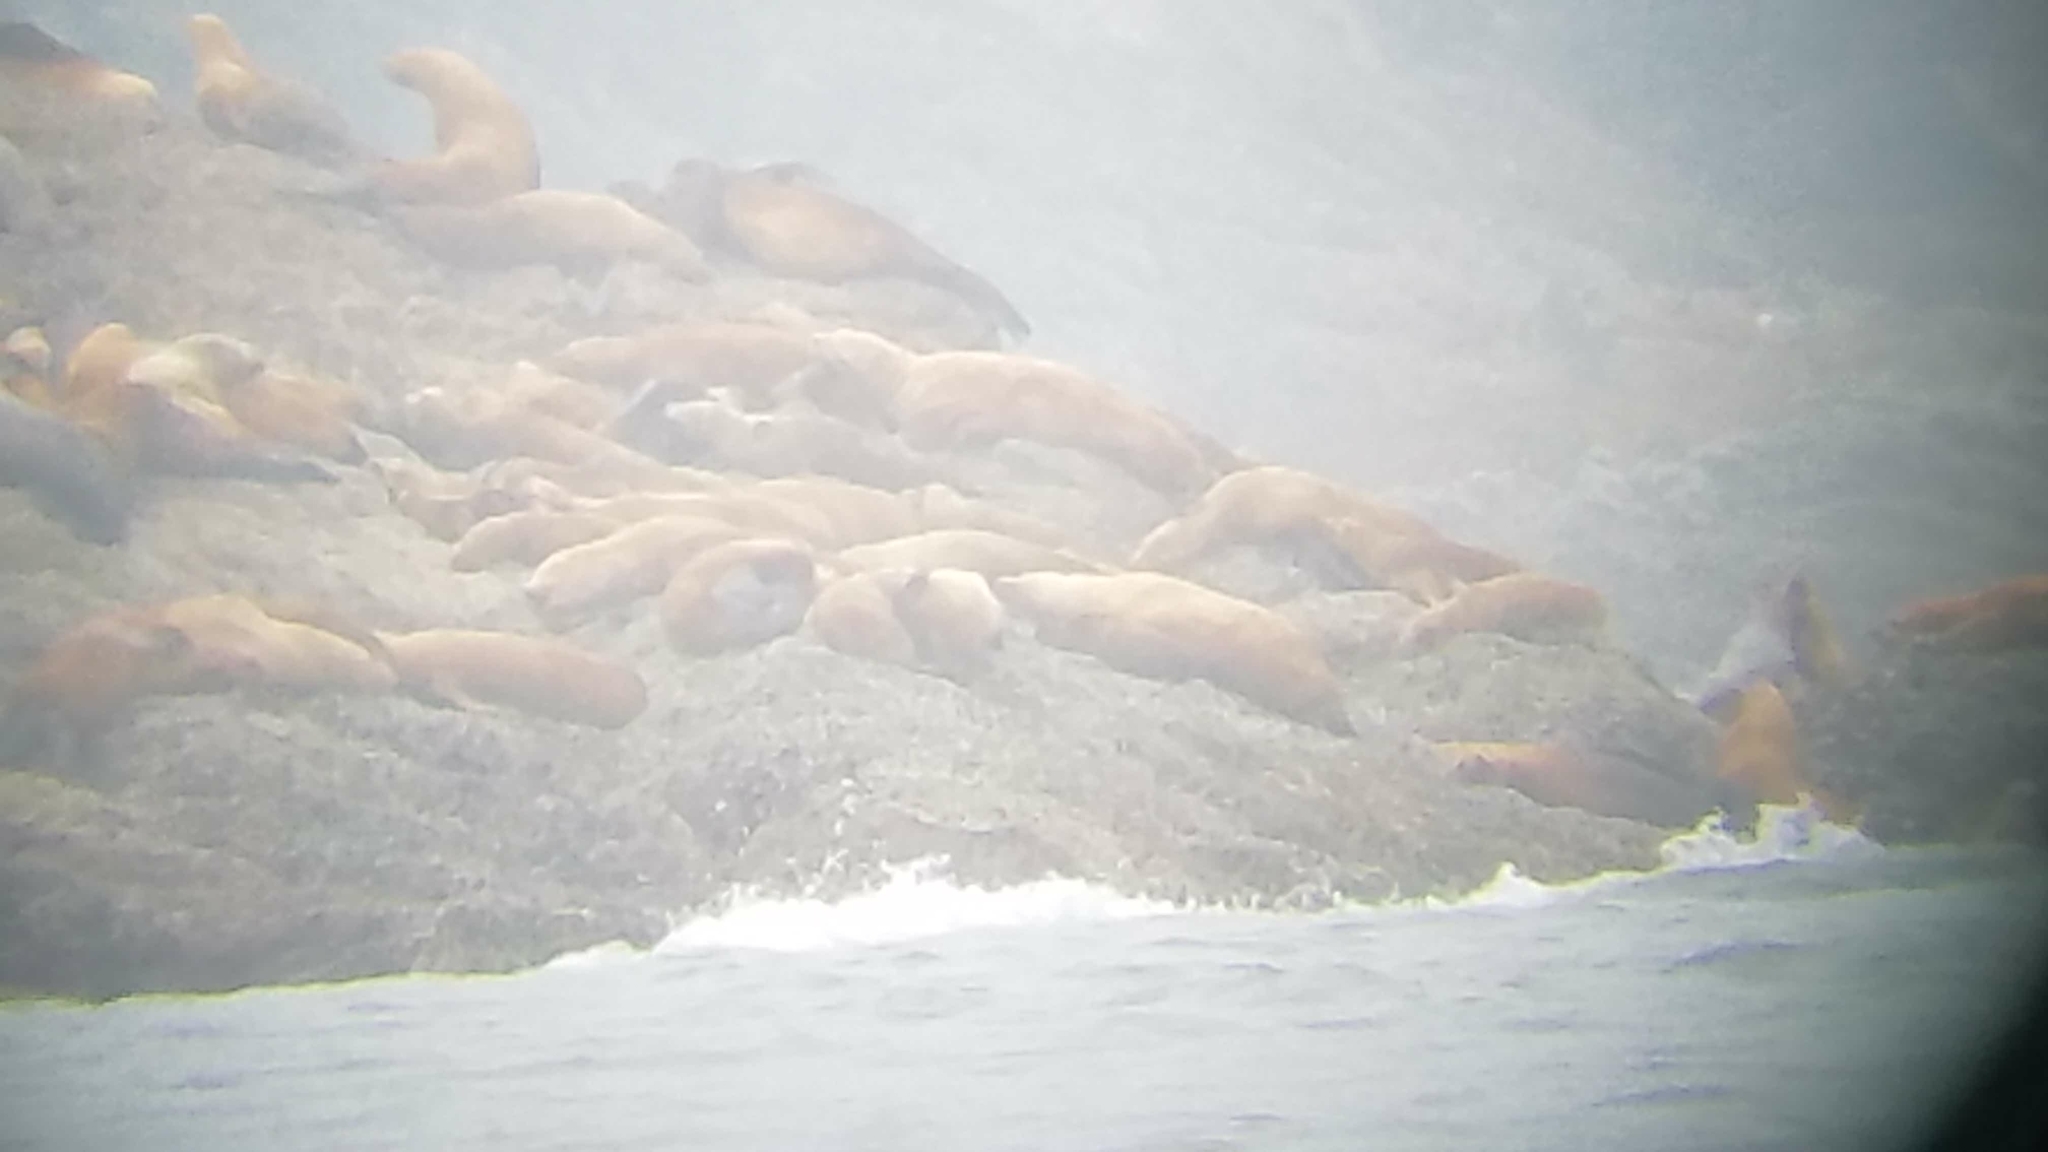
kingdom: Animalia
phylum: Chordata
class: Mammalia
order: Carnivora
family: Otariidae
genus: Eumetopias
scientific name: Eumetopias jubatus
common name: Steller sea lion
